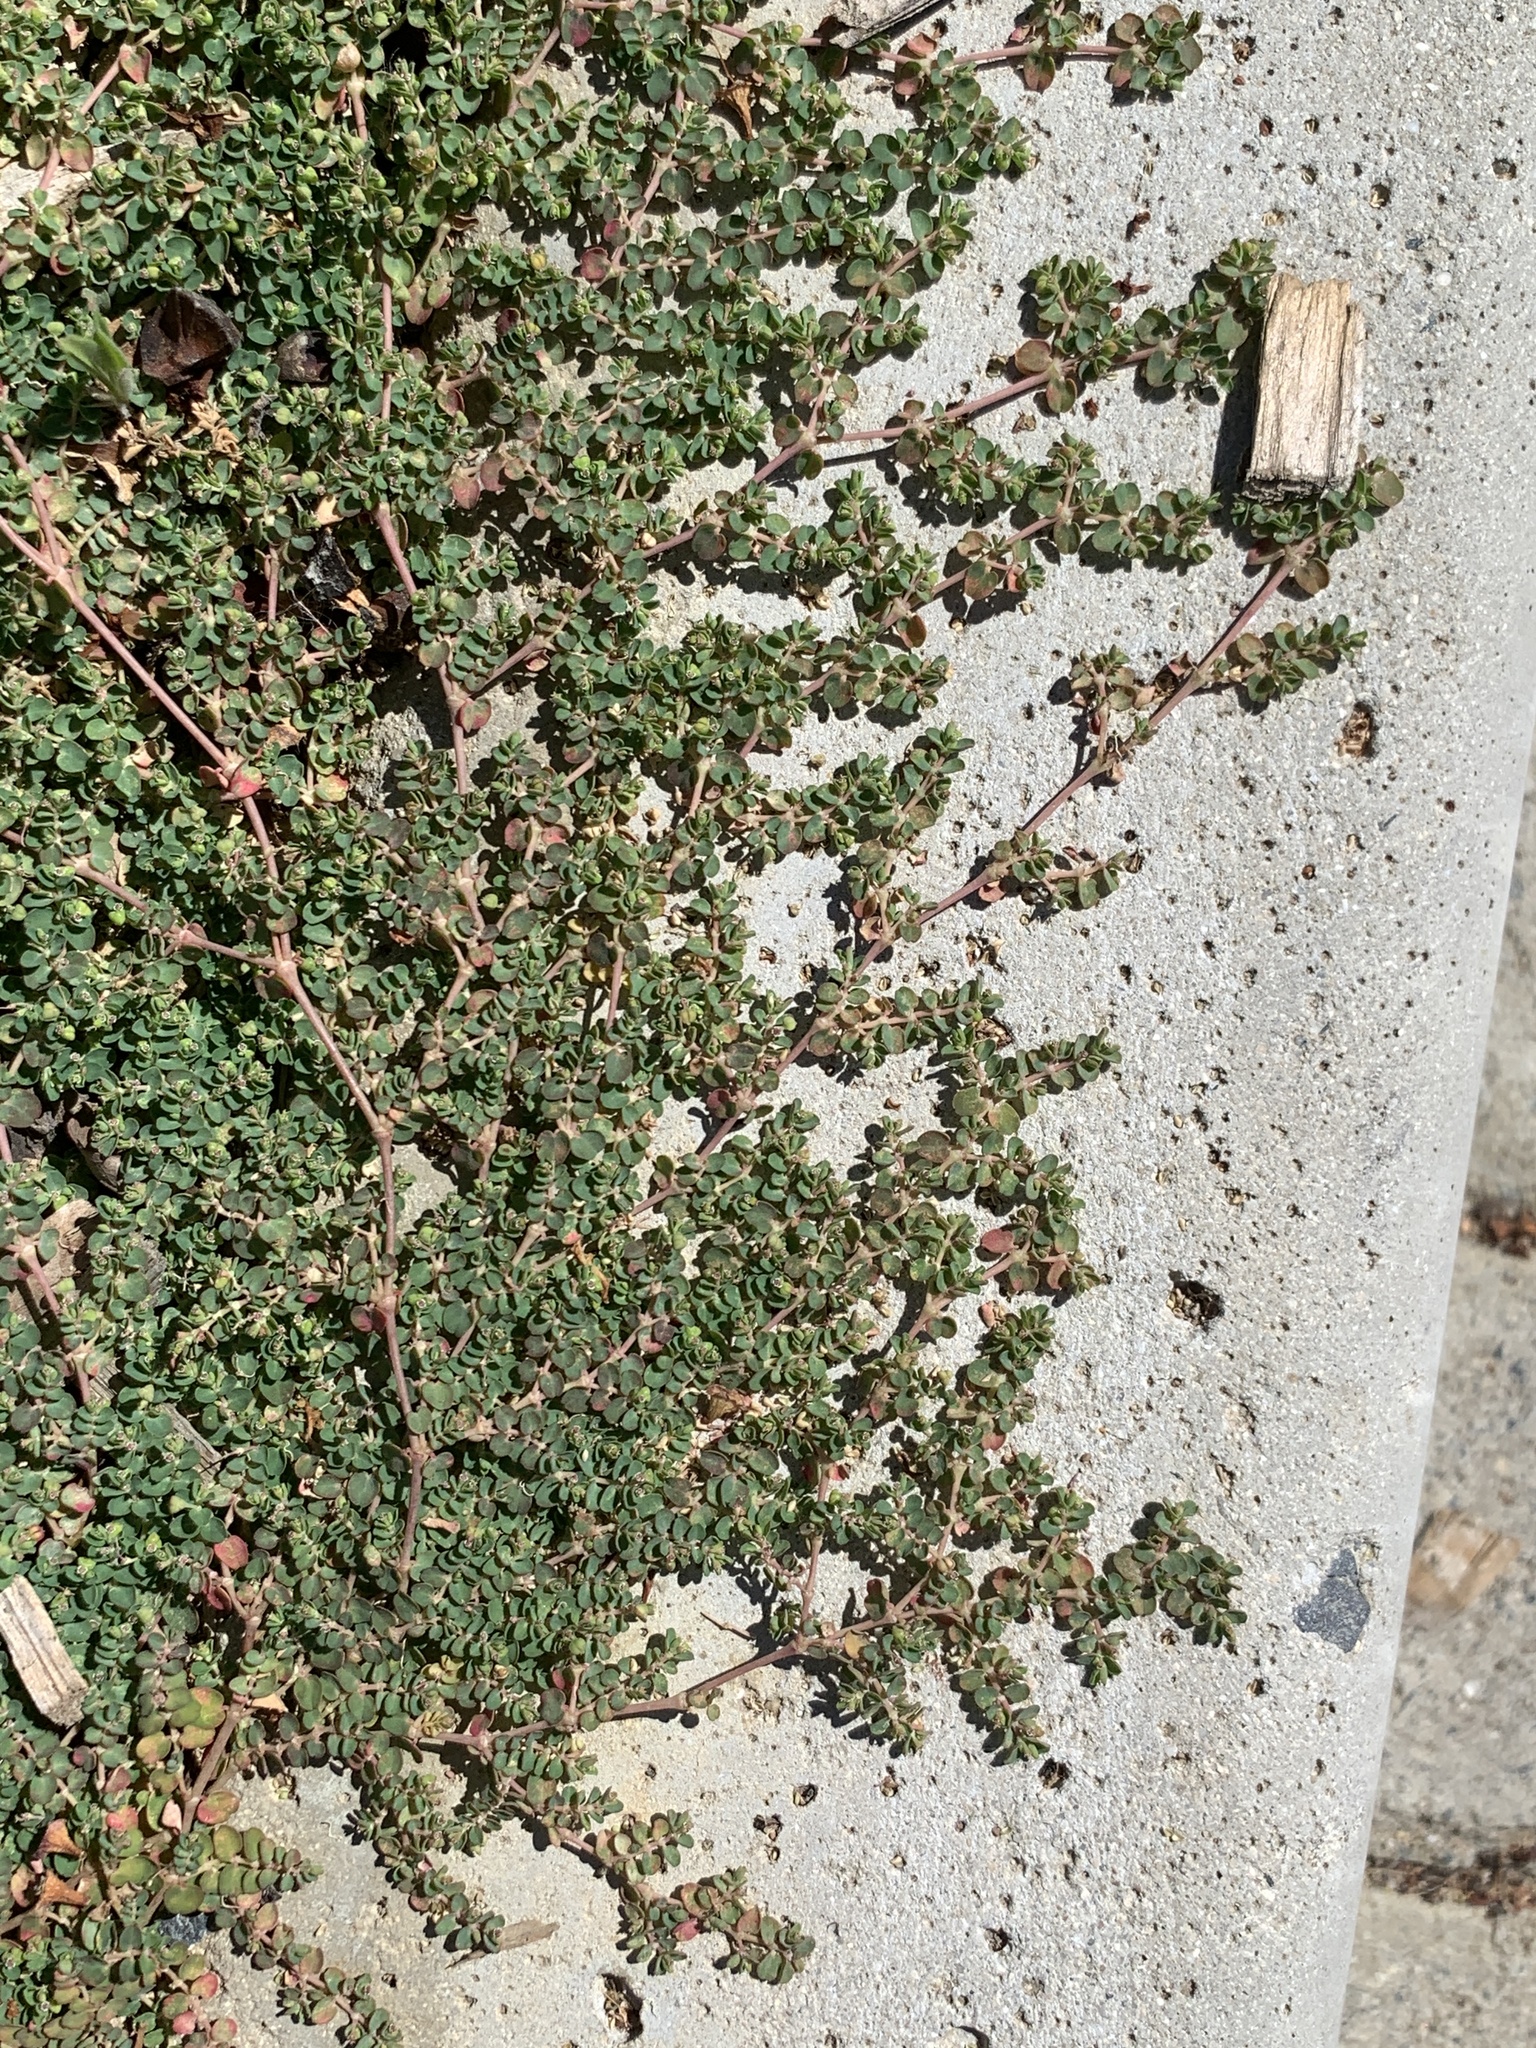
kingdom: Plantae
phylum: Tracheophyta
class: Magnoliopsida
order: Malpighiales
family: Euphorbiaceae
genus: Euphorbia
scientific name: Euphorbia serpens
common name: Matted sandmat
